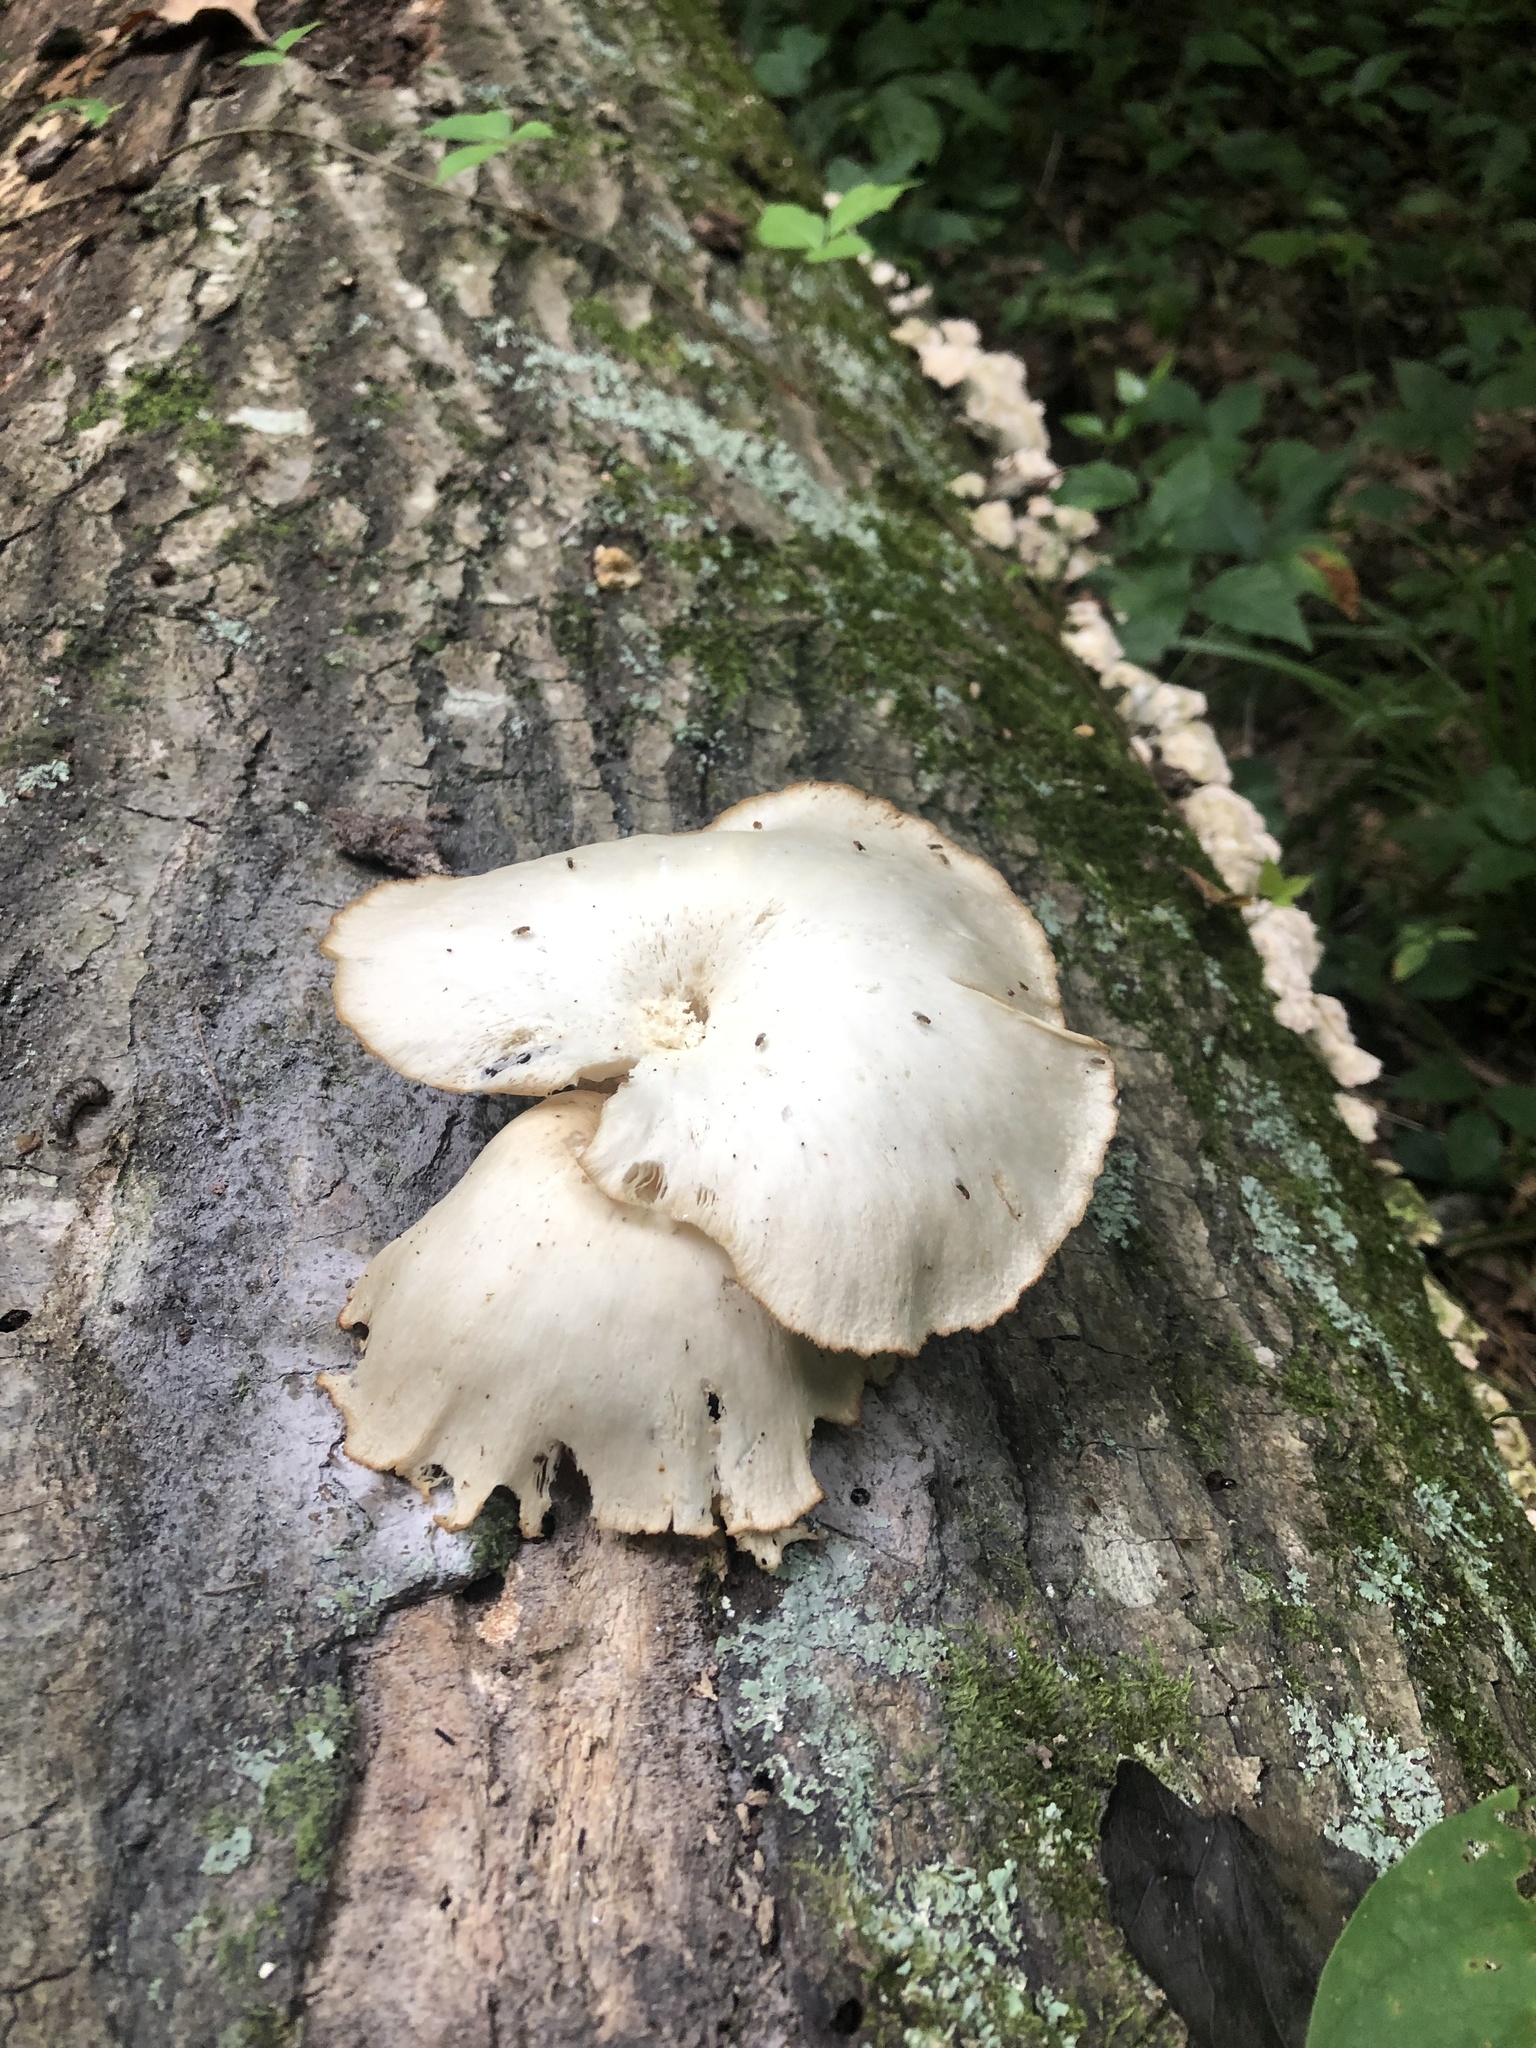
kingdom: Fungi
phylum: Basidiomycota
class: Agaricomycetes
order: Agaricales
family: Pleurotaceae
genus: Pleurotus
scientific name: Pleurotus pulmonarius
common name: Pale oyster
